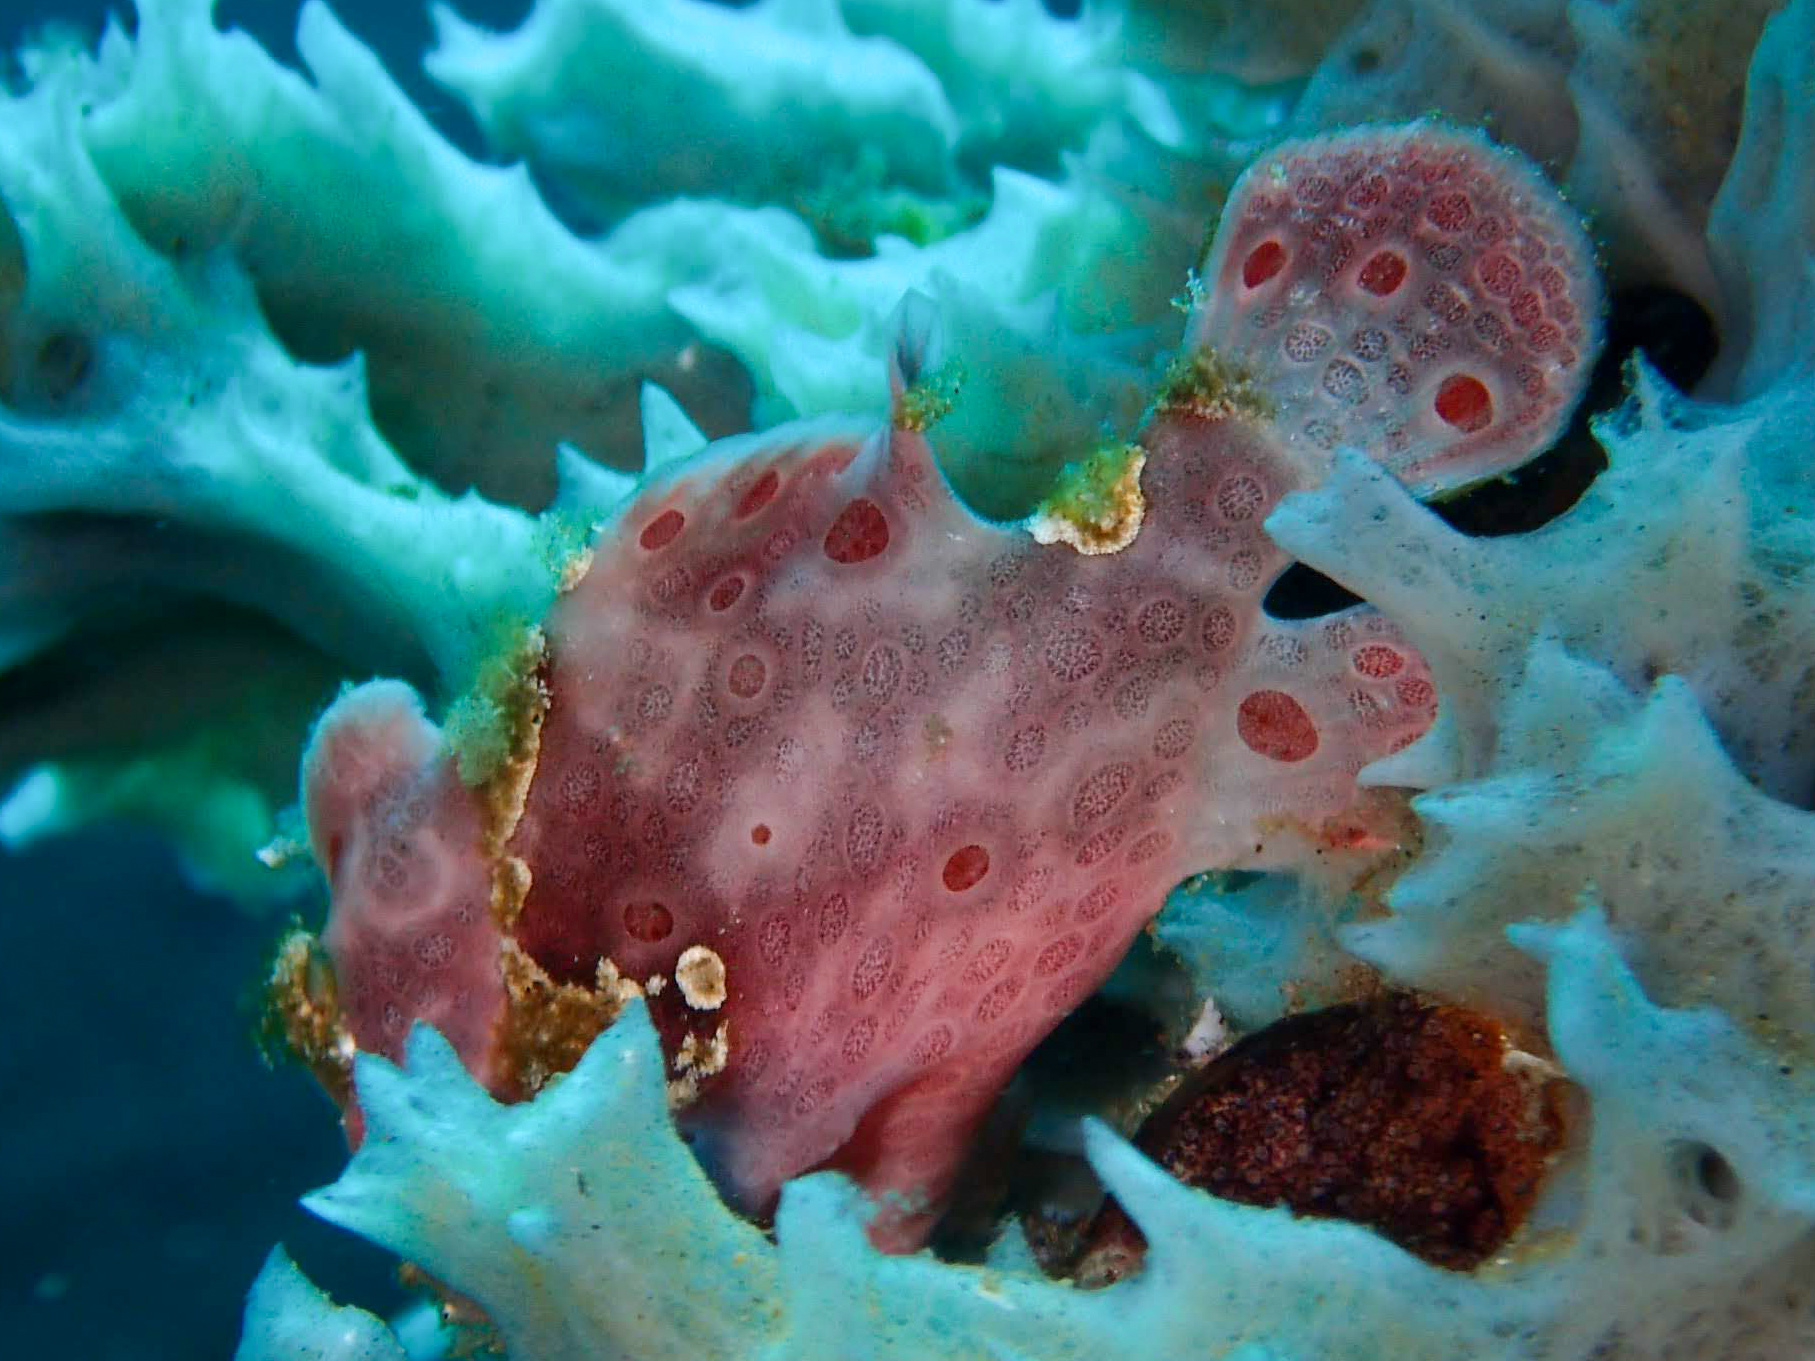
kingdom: Animalia
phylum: Chordata
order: Lophiiformes
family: Antennariidae
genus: Antennarius
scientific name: Antennarius pictus
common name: Painted frogfish
